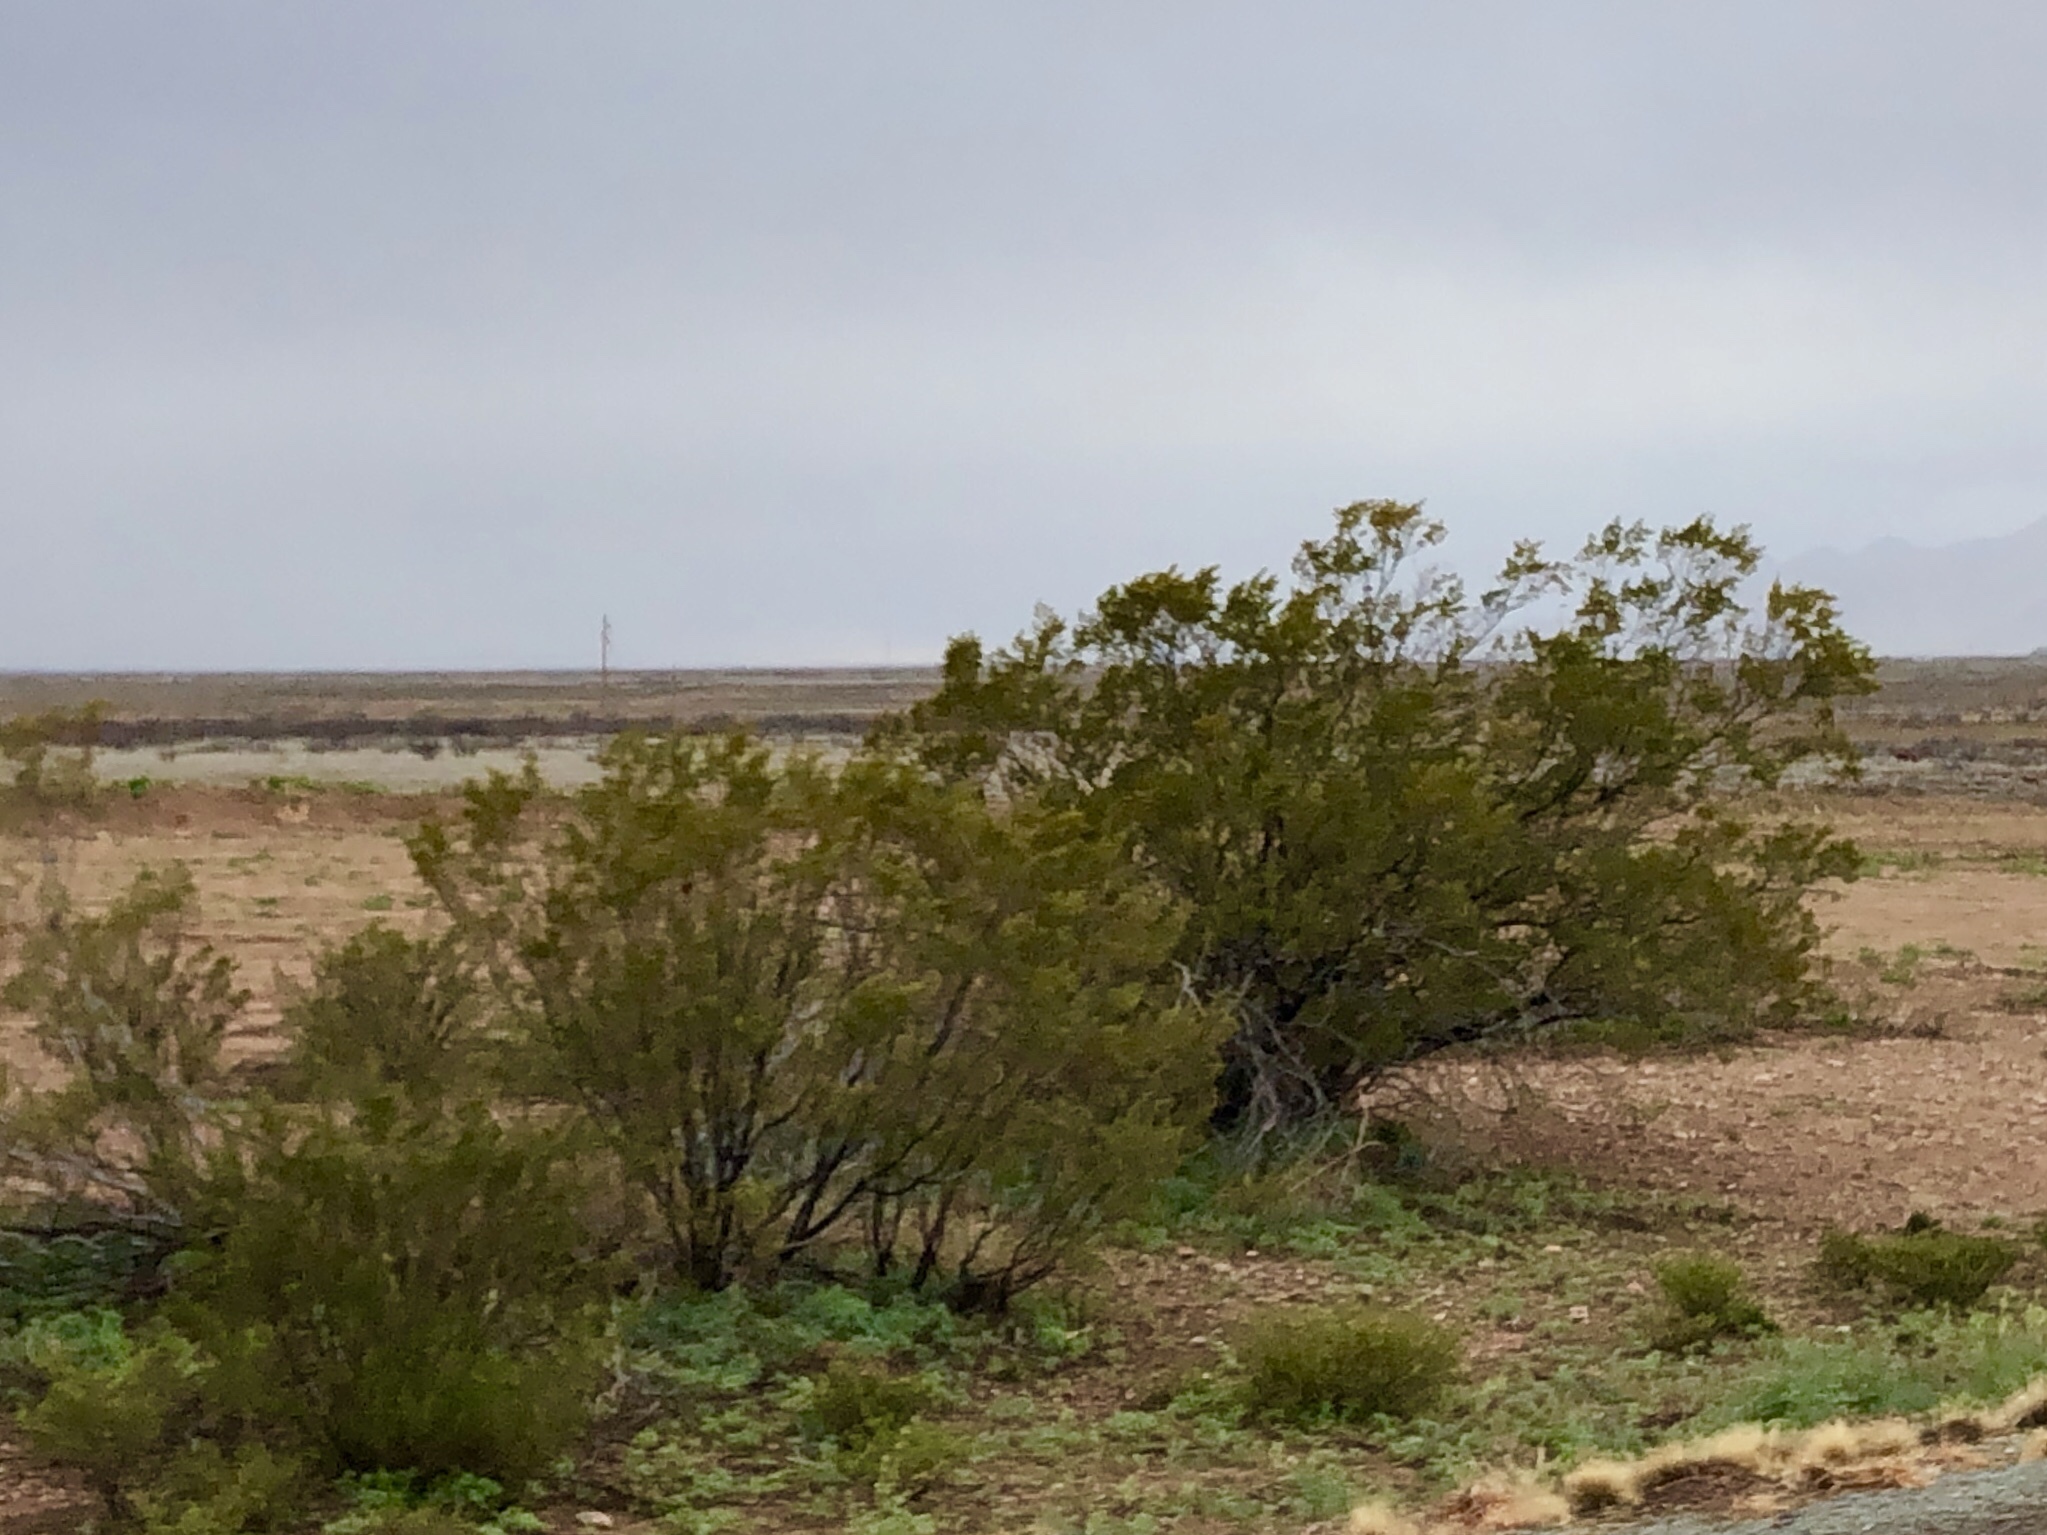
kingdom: Plantae
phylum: Tracheophyta
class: Magnoliopsida
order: Zygophyllales
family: Zygophyllaceae
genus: Larrea
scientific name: Larrea tridentata
